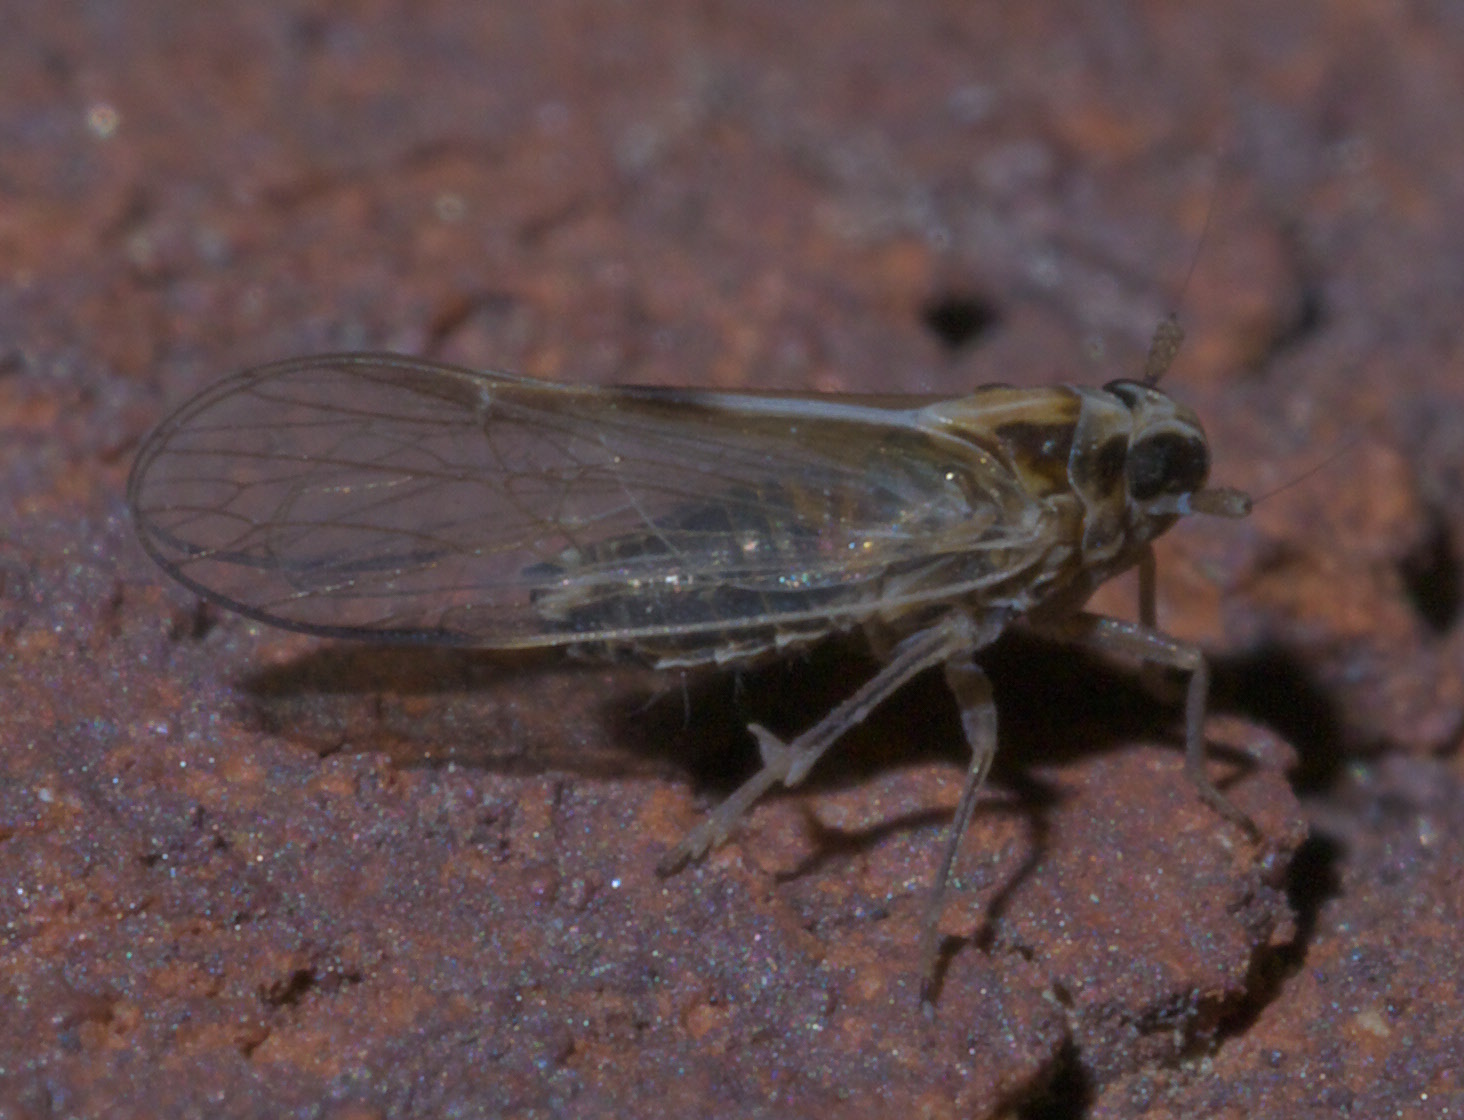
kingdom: Animalia
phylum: Arthropoda
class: Insecta
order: Hemiptera
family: Delphacidae
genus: Muellerianella
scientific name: Muellerianella laminalis
